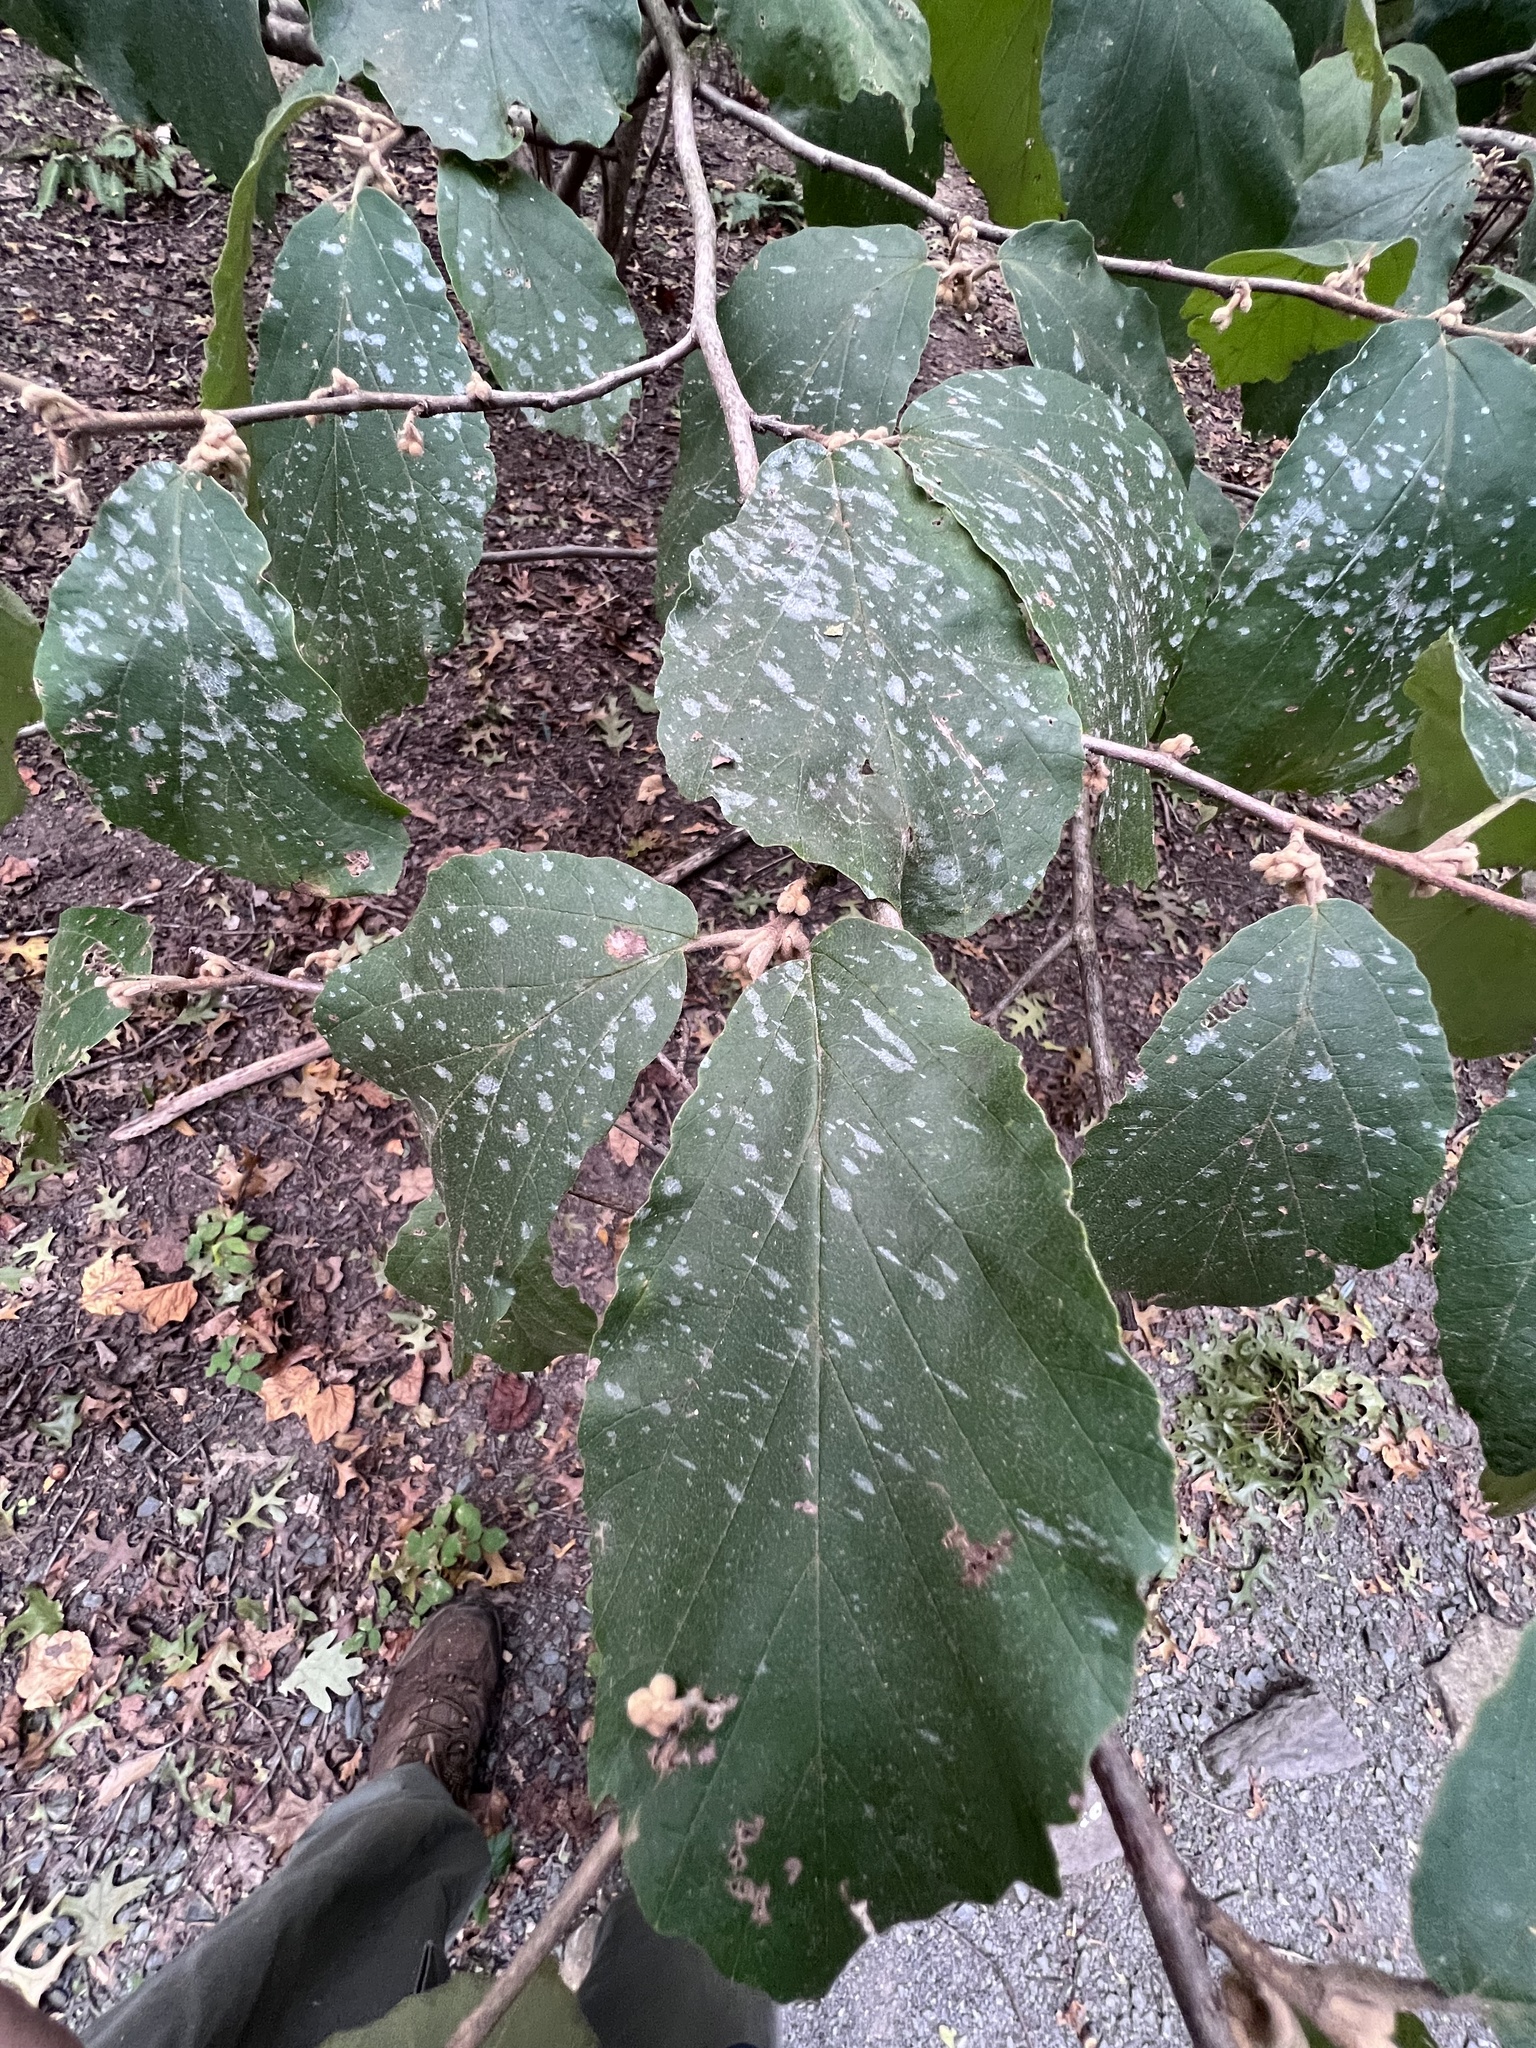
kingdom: Fungi
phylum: Ascomycota
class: Leotiomycetes
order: Helotiales
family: Erysiphaceae
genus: Podosphaera
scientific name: Podosphaera biuncinata
